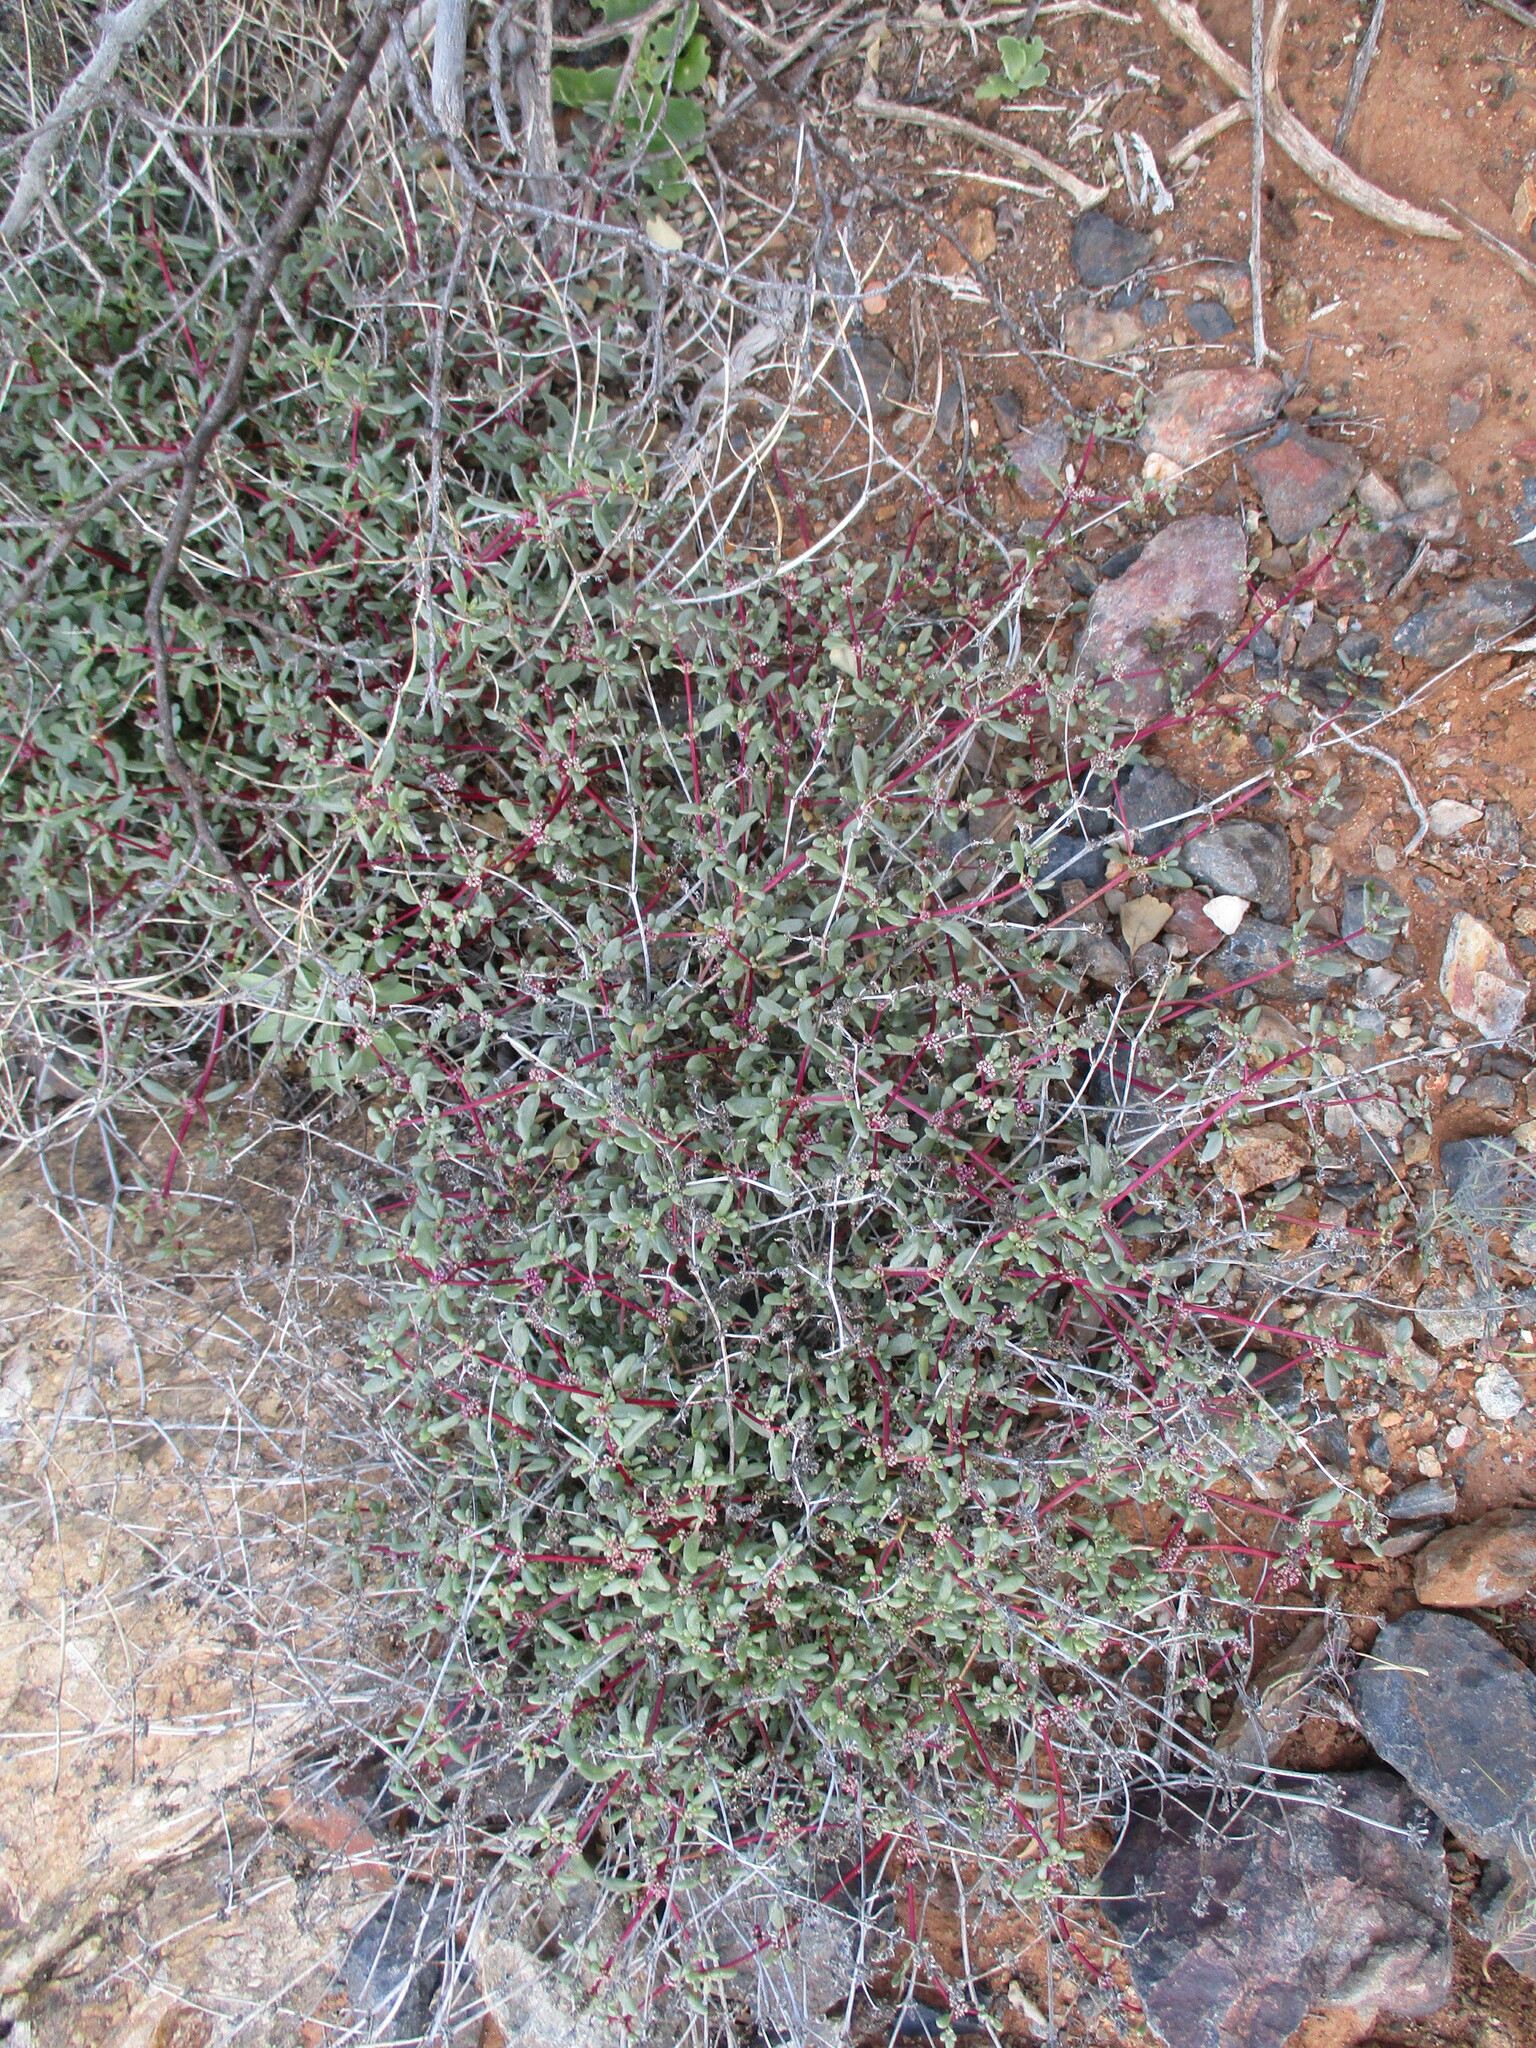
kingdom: Plantae
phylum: Tracheophyta
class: Magnoliopsida
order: Caryophyllales
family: Aizoaceae
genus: Trianthema
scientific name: Trianthema parvifolium
